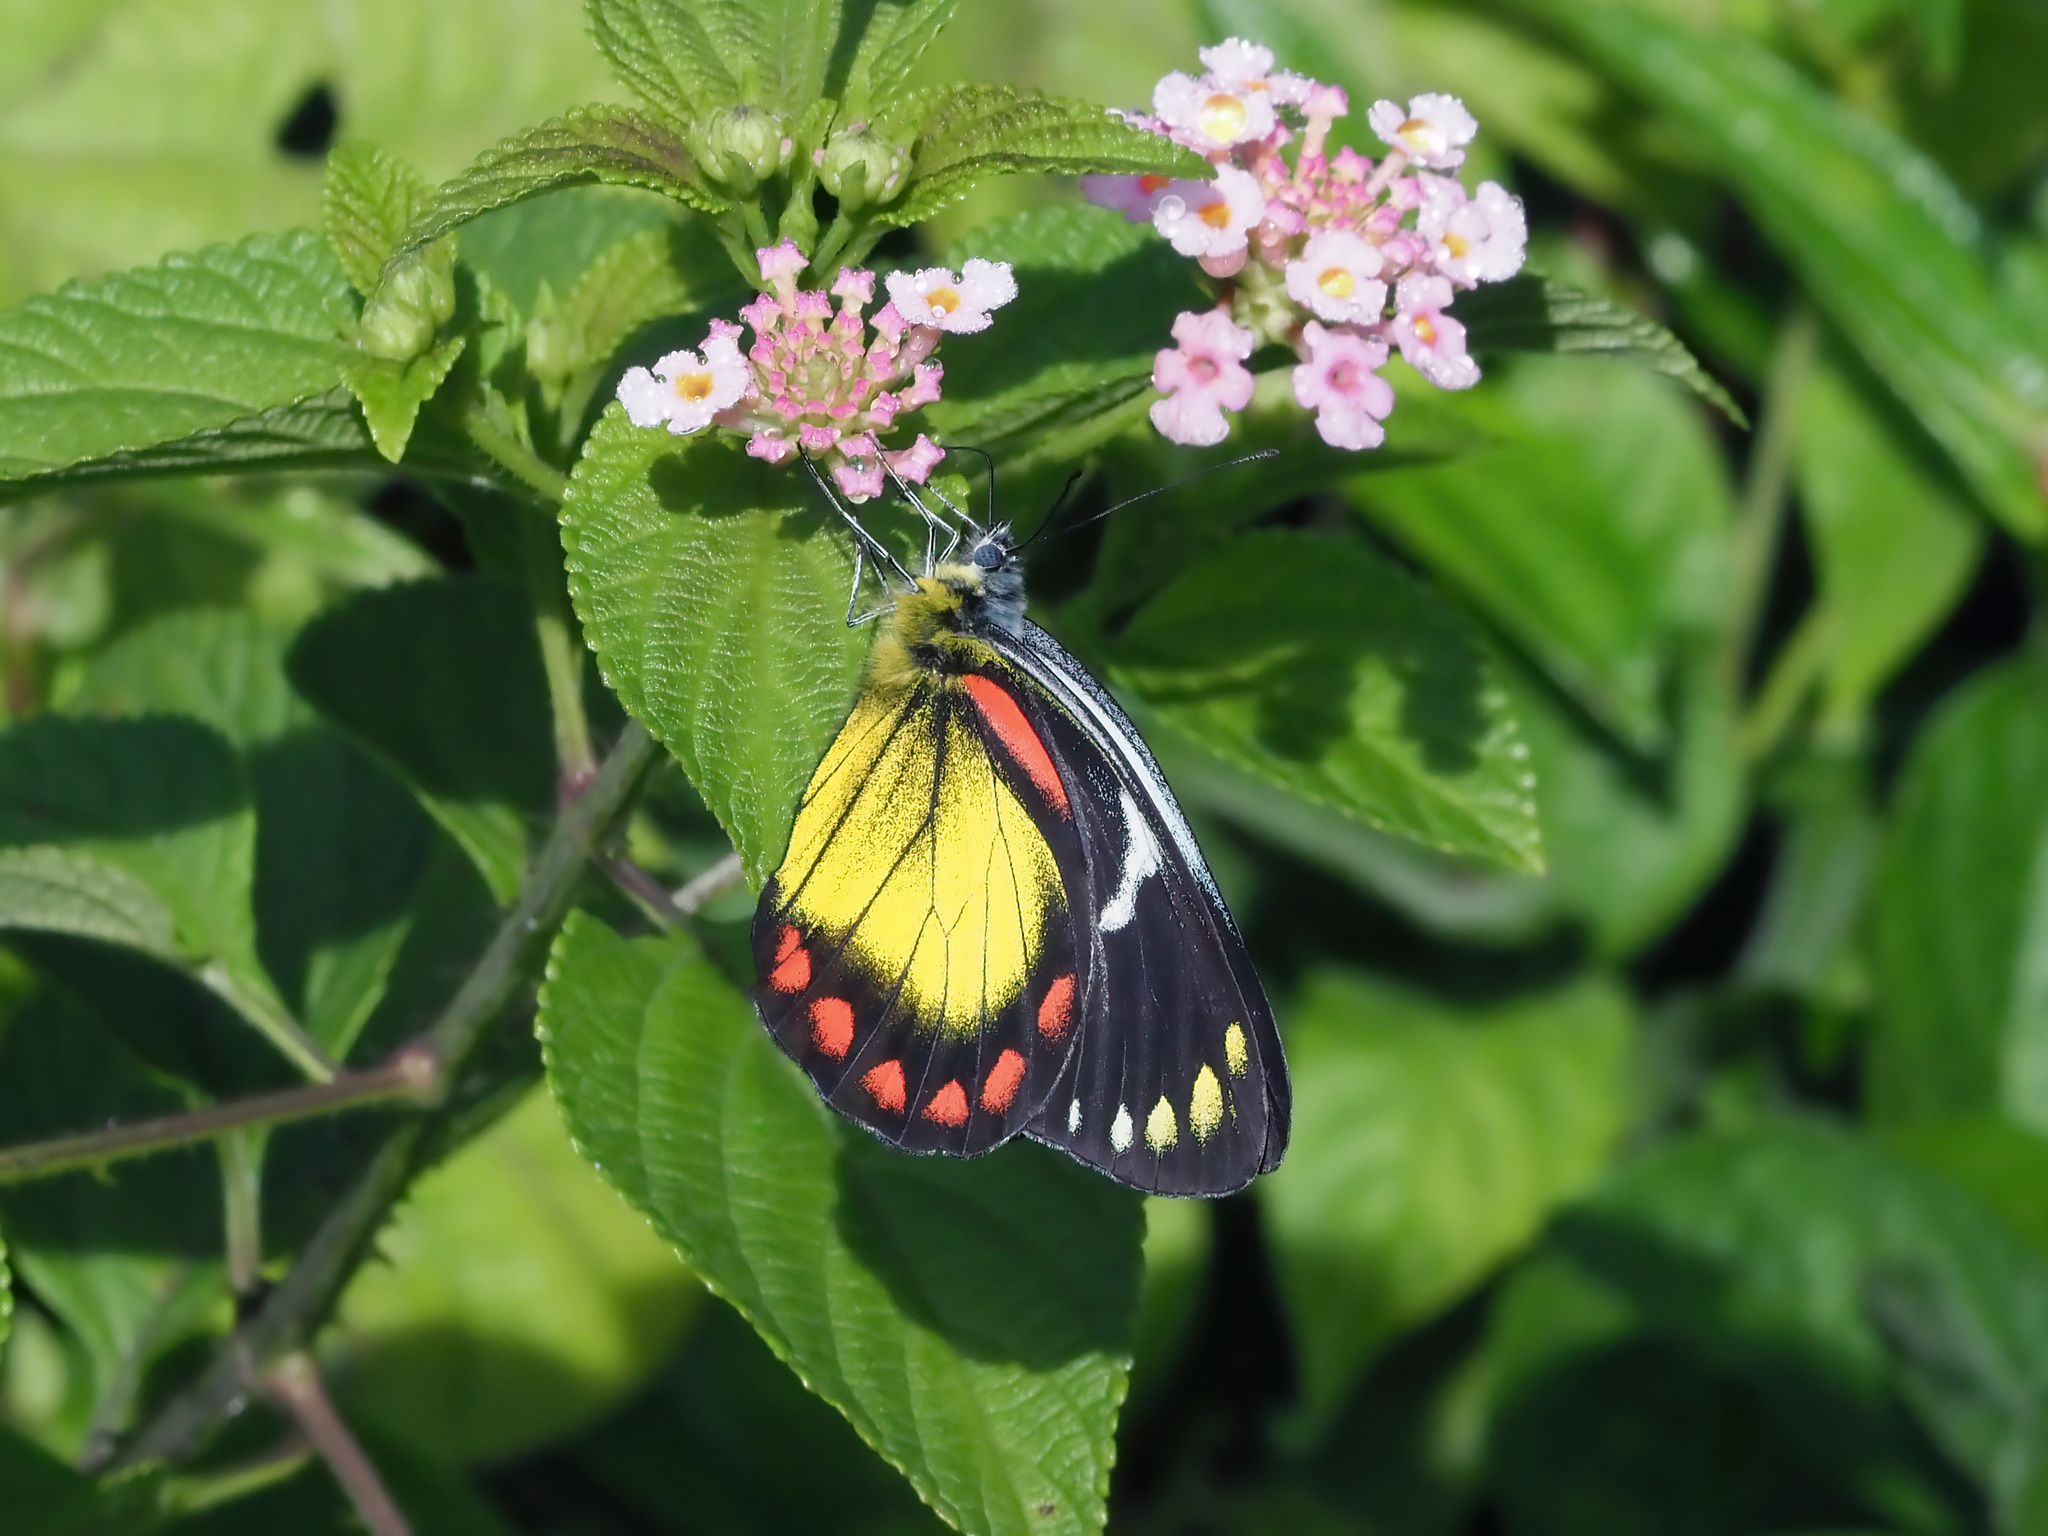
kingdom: Animalia
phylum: Arthropoda
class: Insecta
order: Lepidoptera
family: Pieridae
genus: Delias
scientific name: Delias eumolpe
